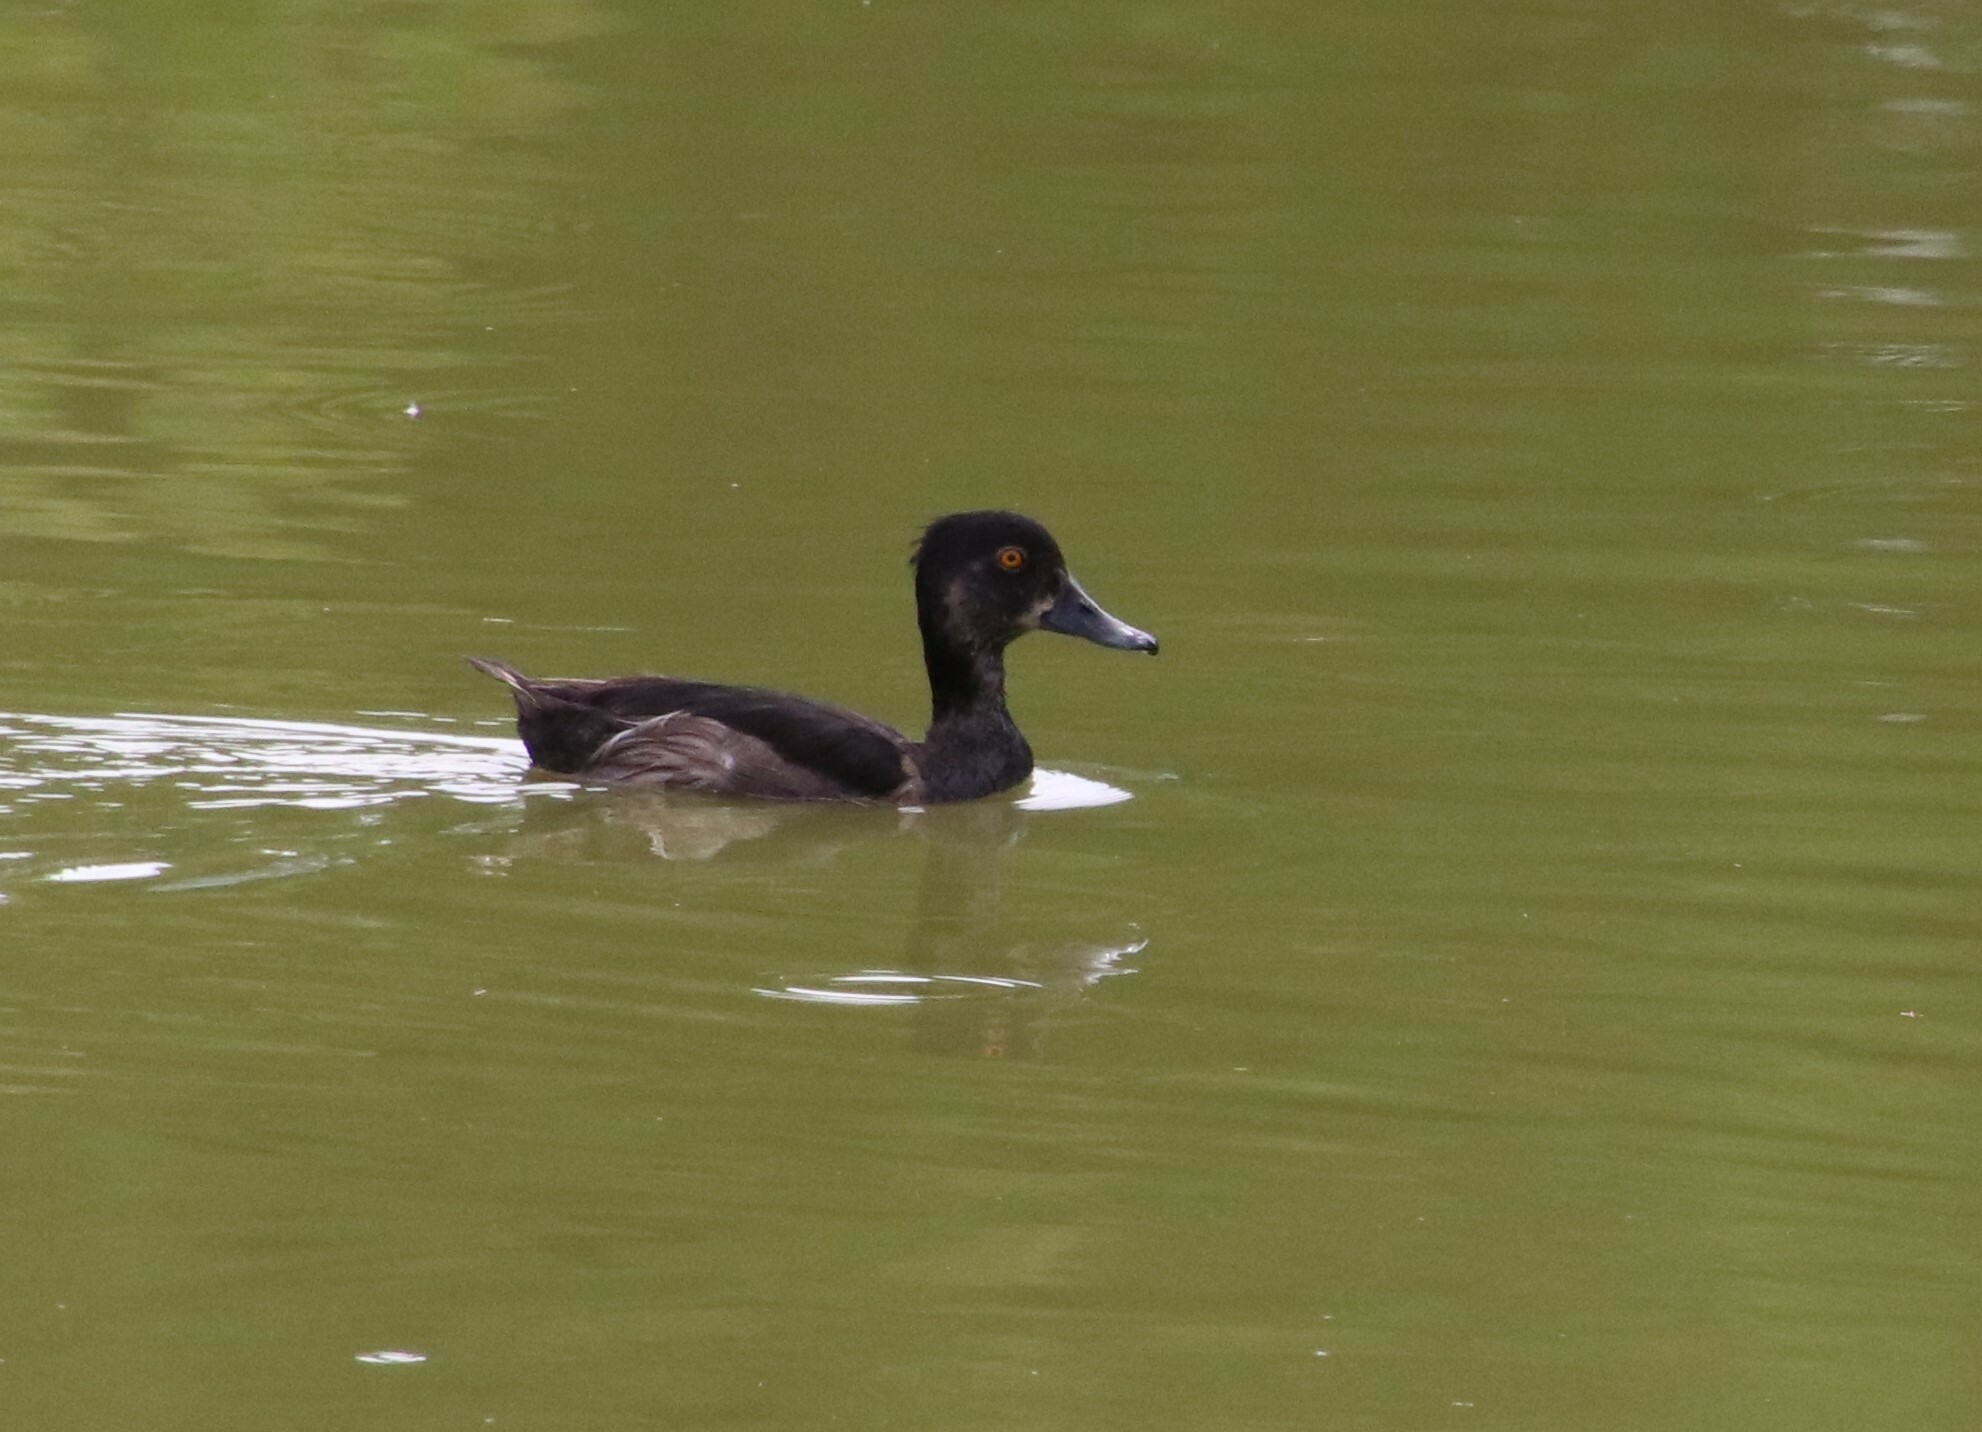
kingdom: Animalia
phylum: Chordata
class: Aves
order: Anseriformes
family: Anatidae
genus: Aythya
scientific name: Aythya collaris
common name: Ring-necked duck
